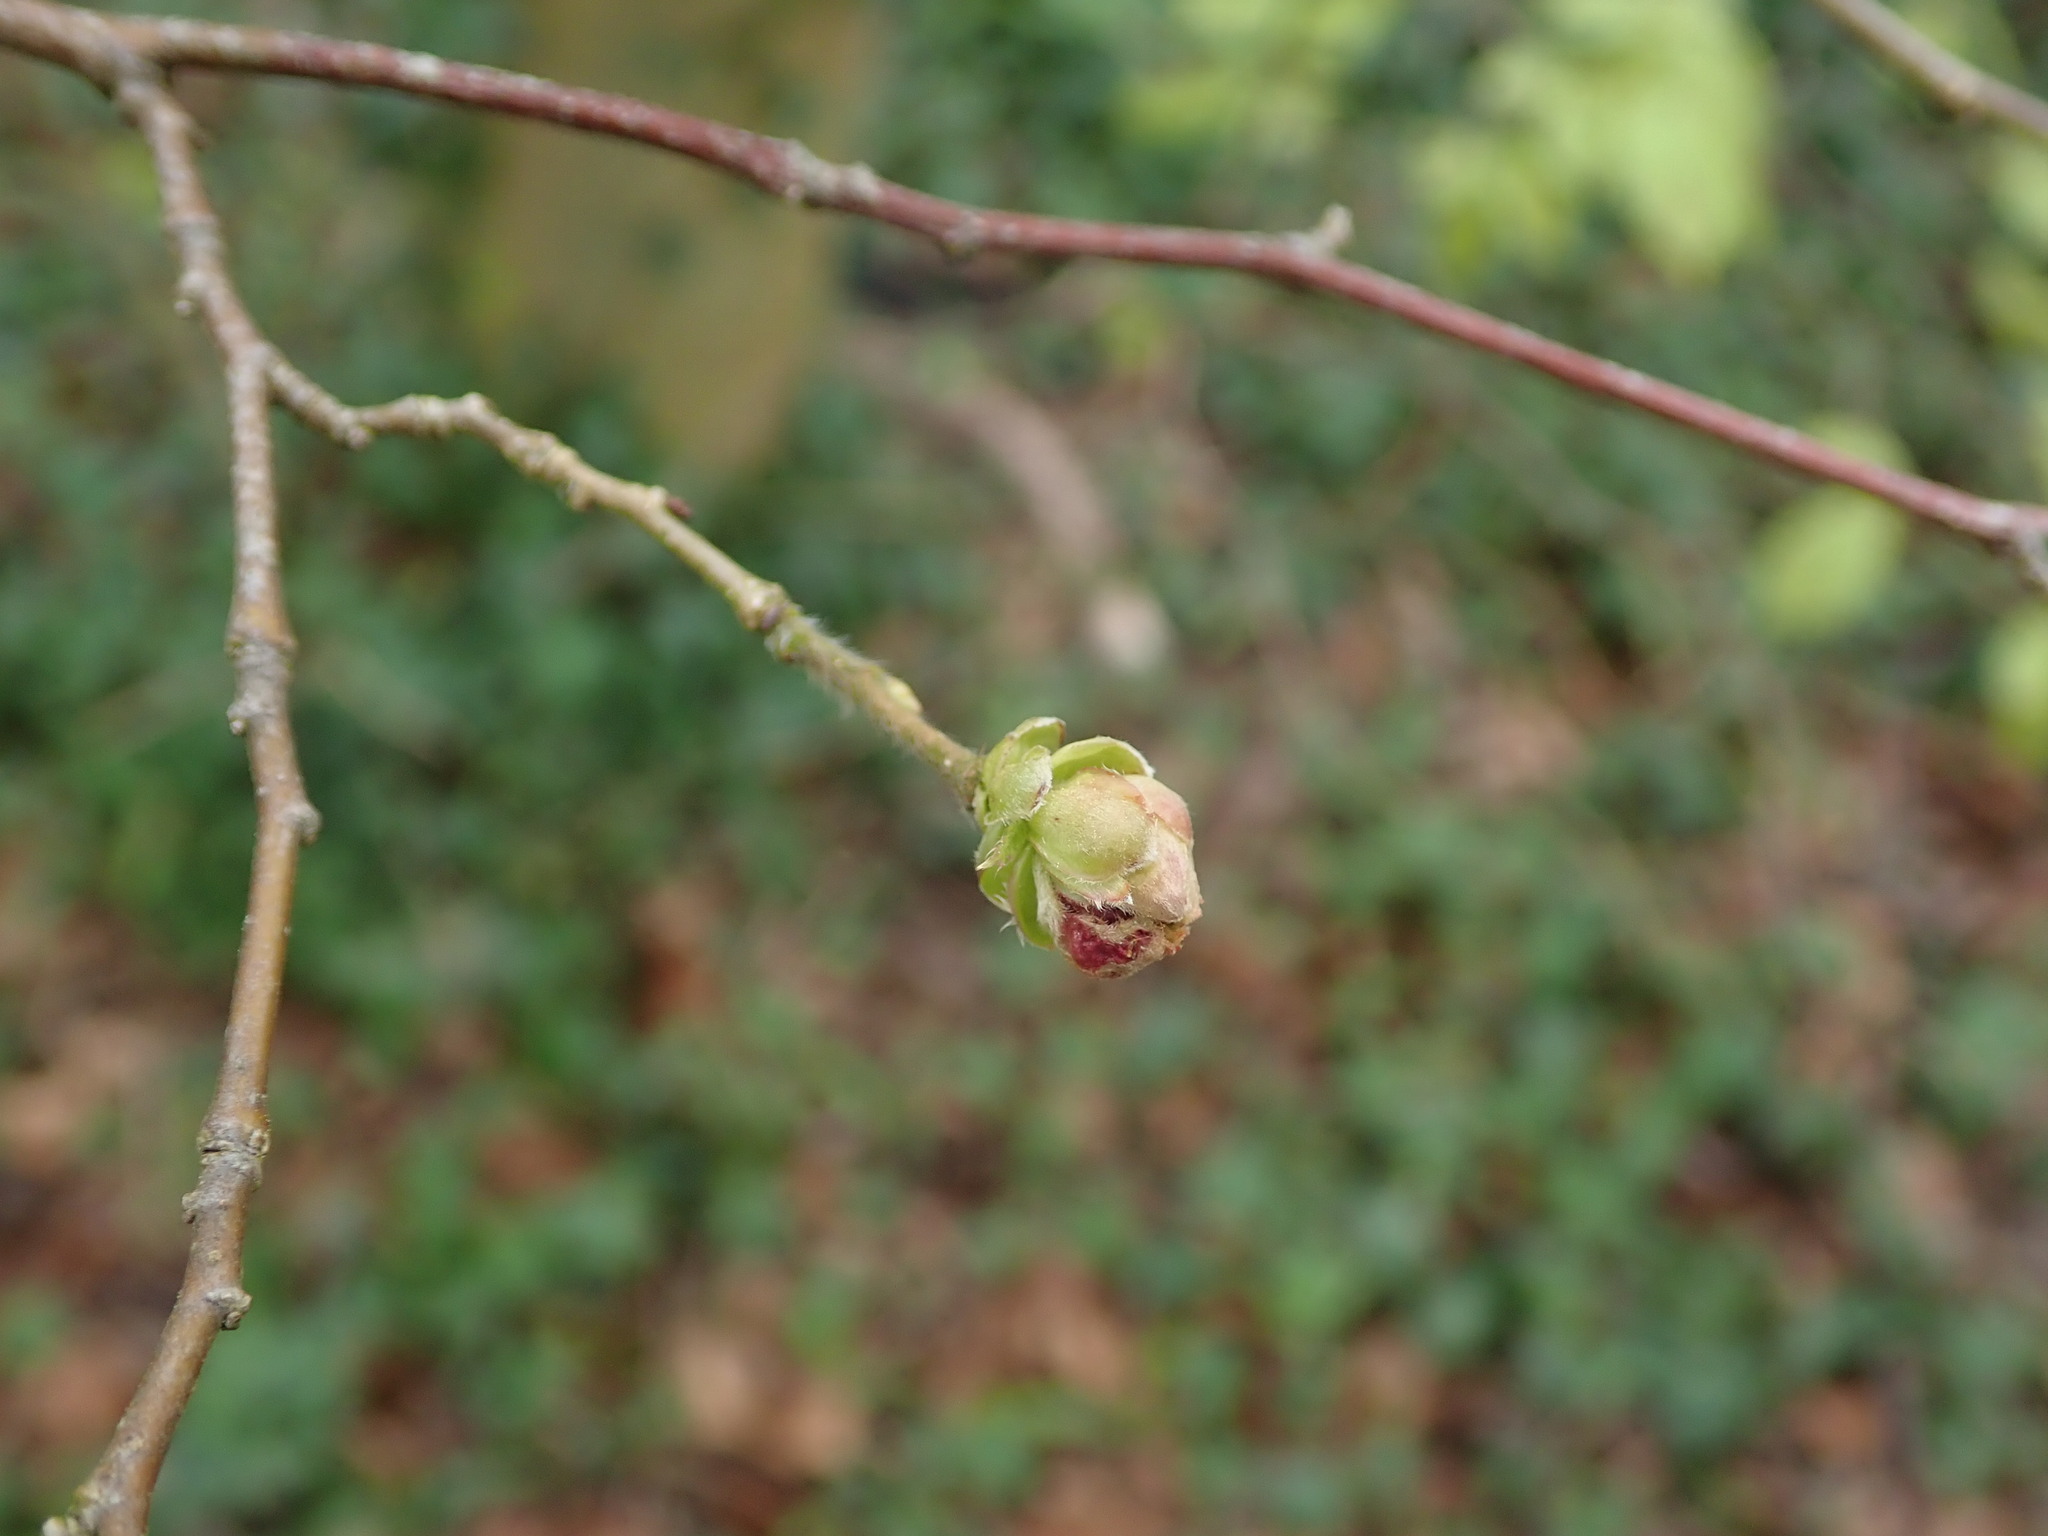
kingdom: Plantae
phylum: Tracheophyta
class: Magnoliopsida
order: Fagales
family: Betulaceae
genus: Corylus
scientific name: Corylus avellana
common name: European hazel
